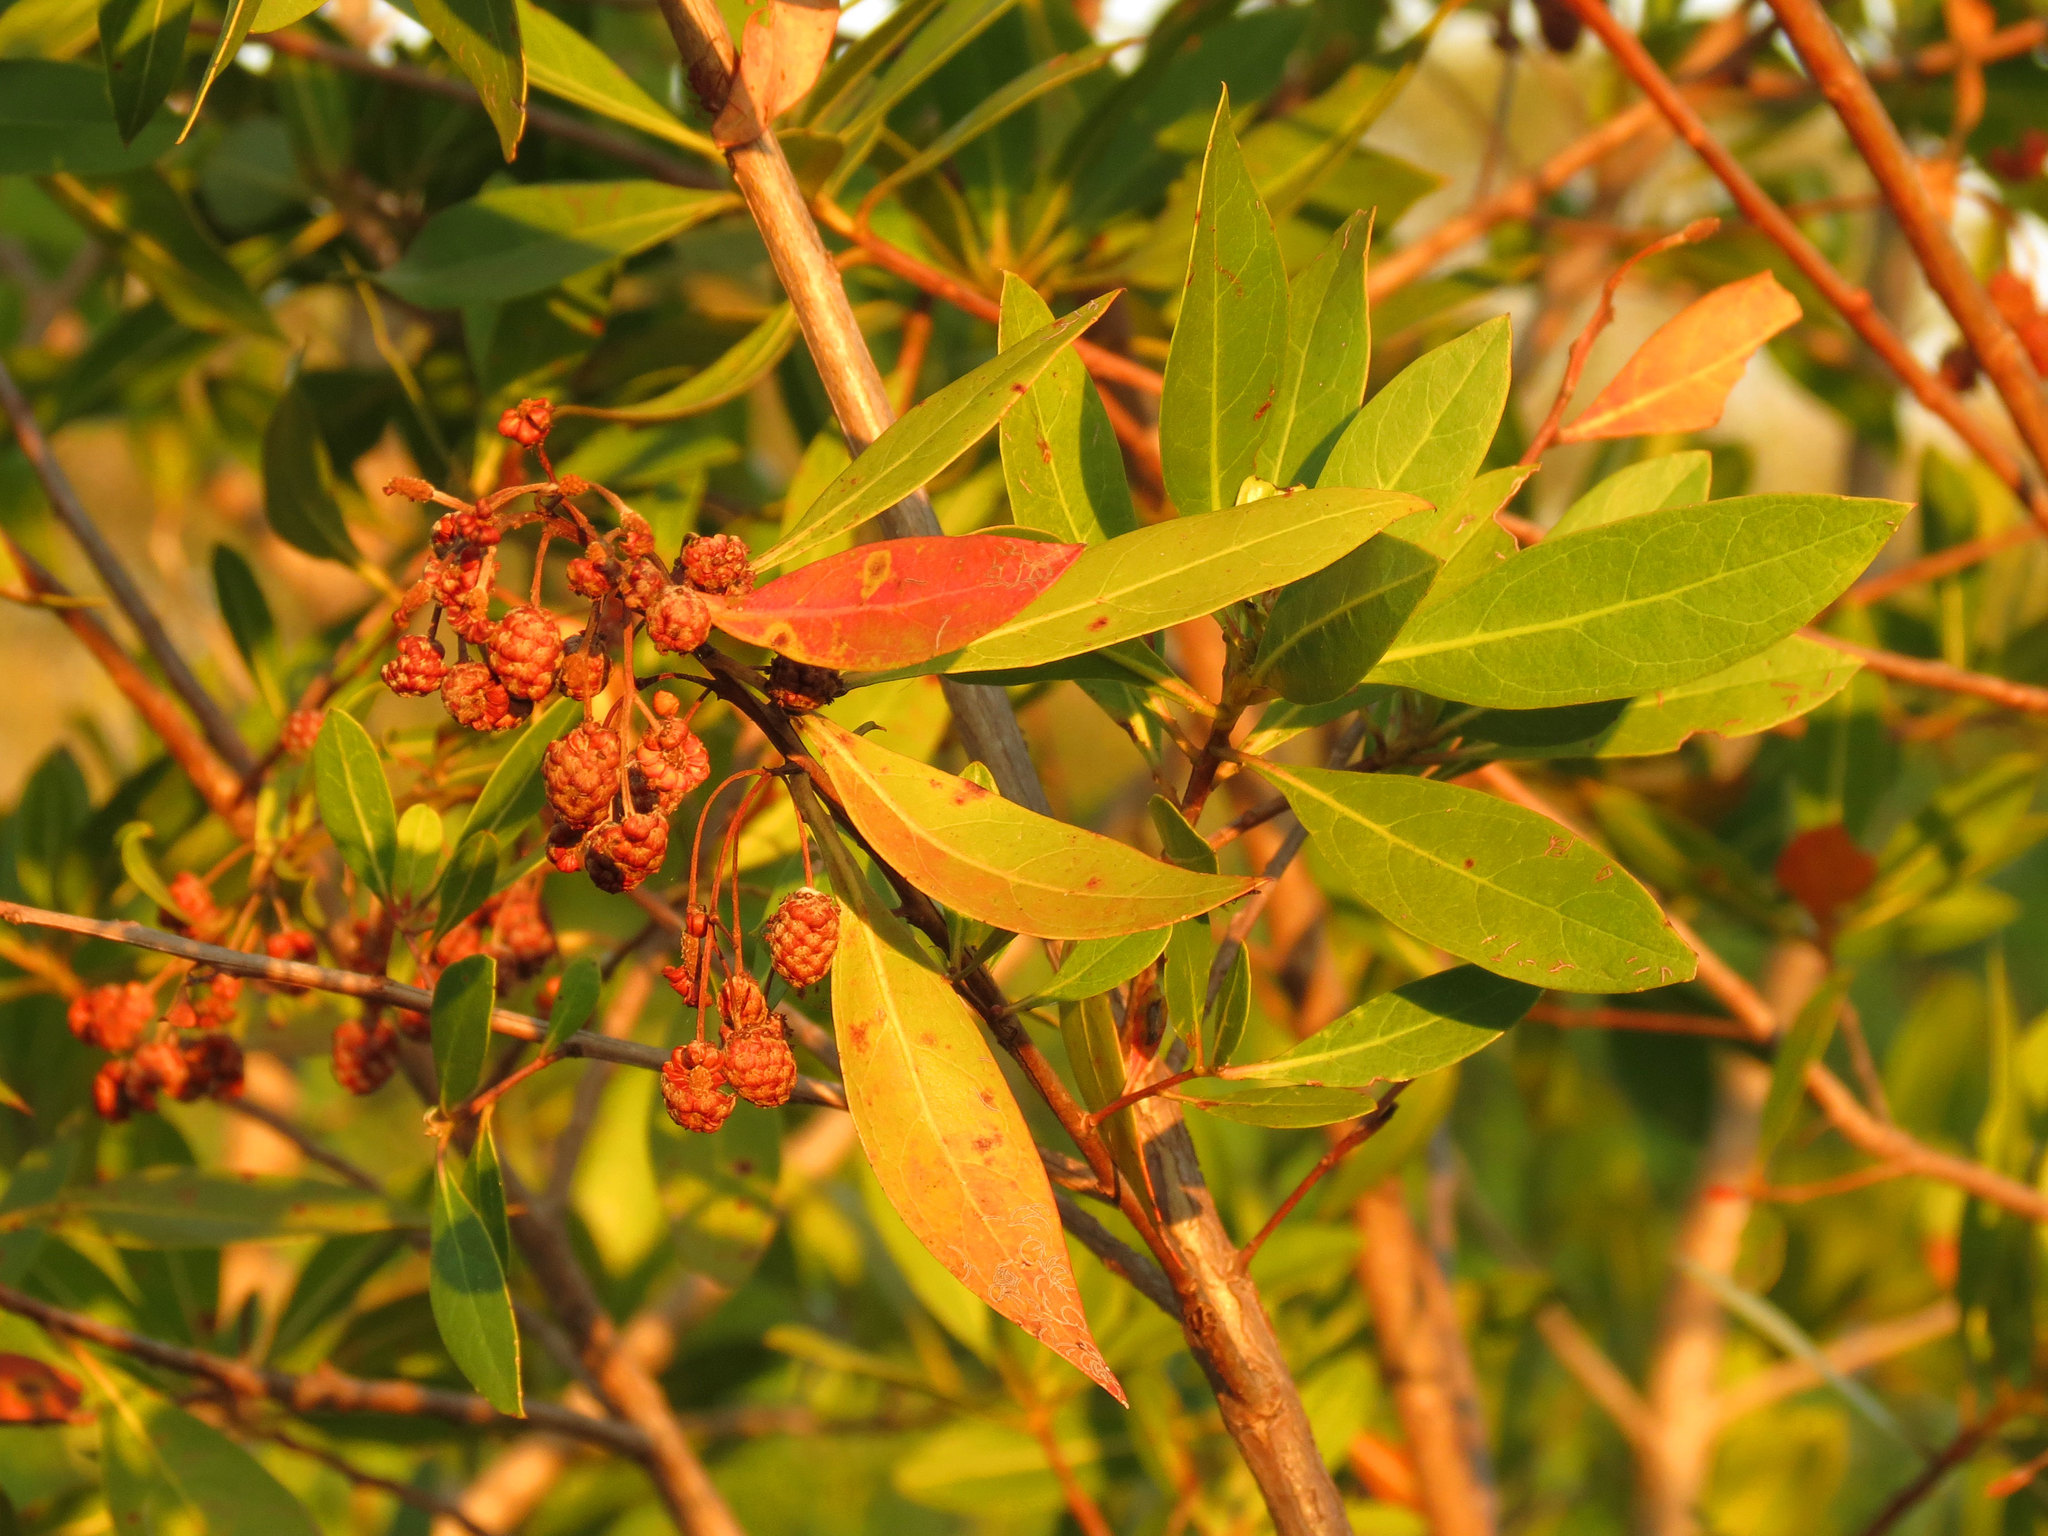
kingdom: Plantae
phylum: Tracheophyta
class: Magnoliopsida
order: Myrtales
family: Combretaceae
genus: Conocarpus
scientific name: Conocarpus erectus
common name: Button mangrove
